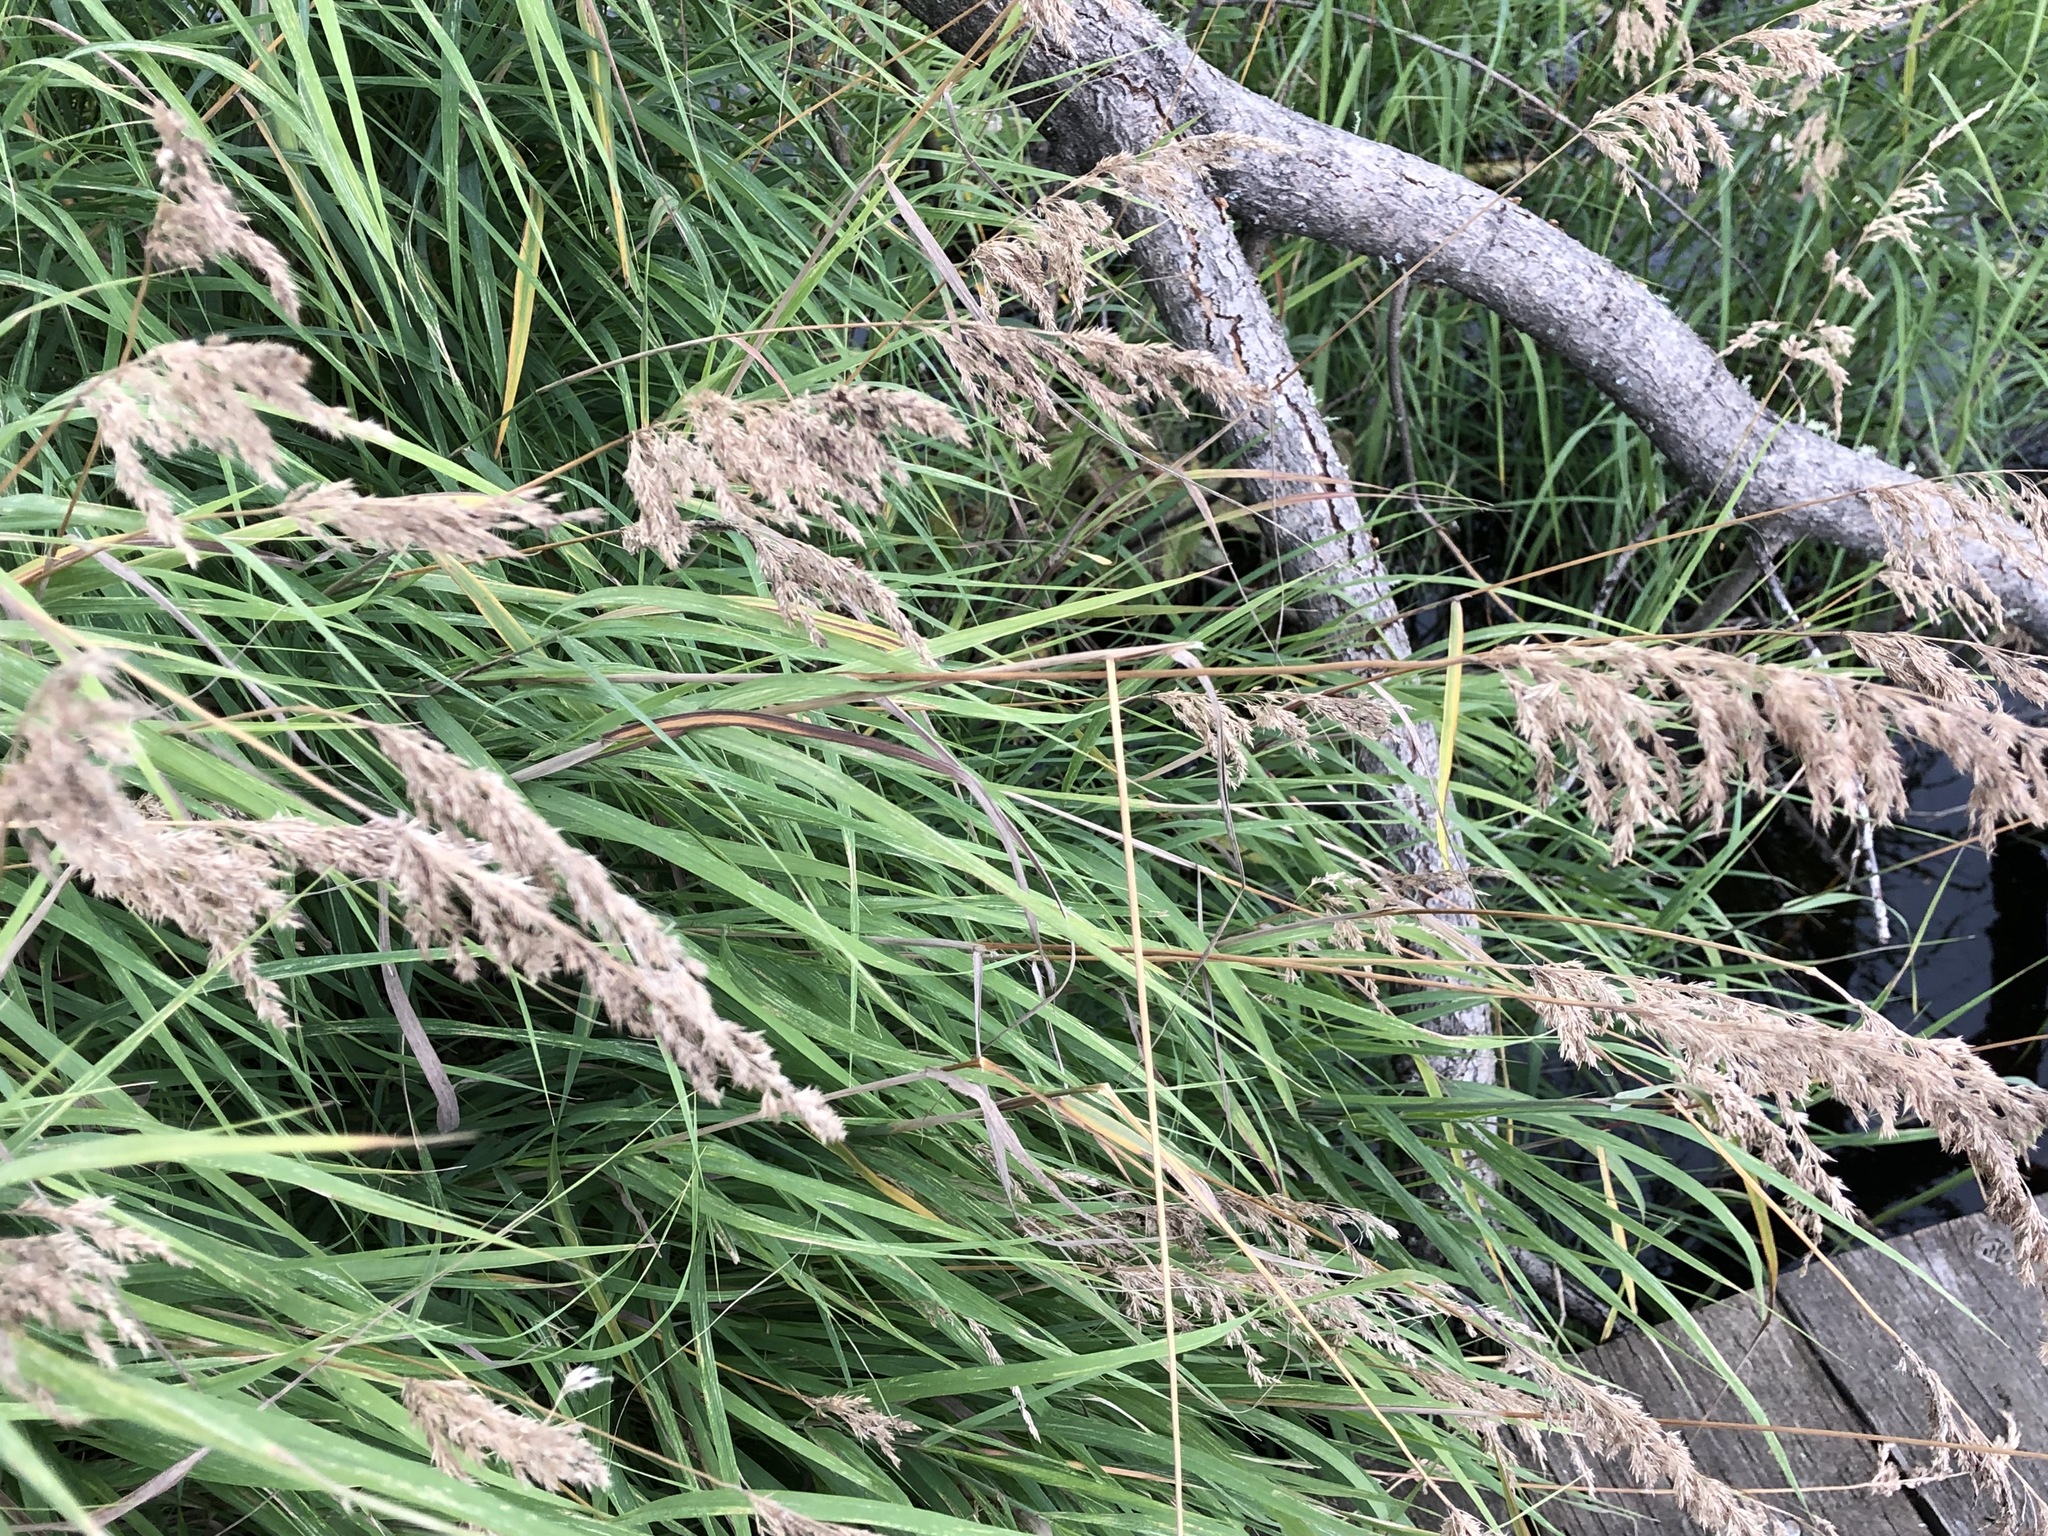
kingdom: Plantae
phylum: Tracheophyta
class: Liliopsida
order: Poales
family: Poaceae
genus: Calamagrostis
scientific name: Calamagrostis canadensis
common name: Canada bluejoint
